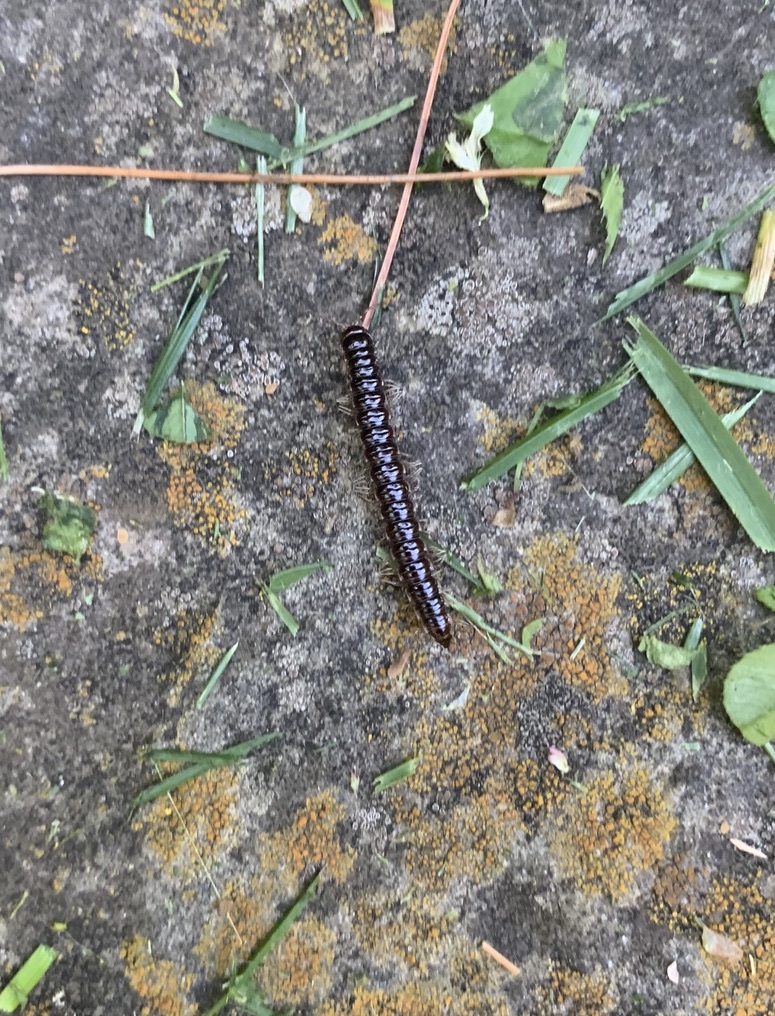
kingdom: Animalia
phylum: Arthropoda
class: Diplopoda
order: Polydesmida
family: Paradoxosomatidae
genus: Oxidus
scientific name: Oxidus gracilis
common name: Greenhouse millipede
